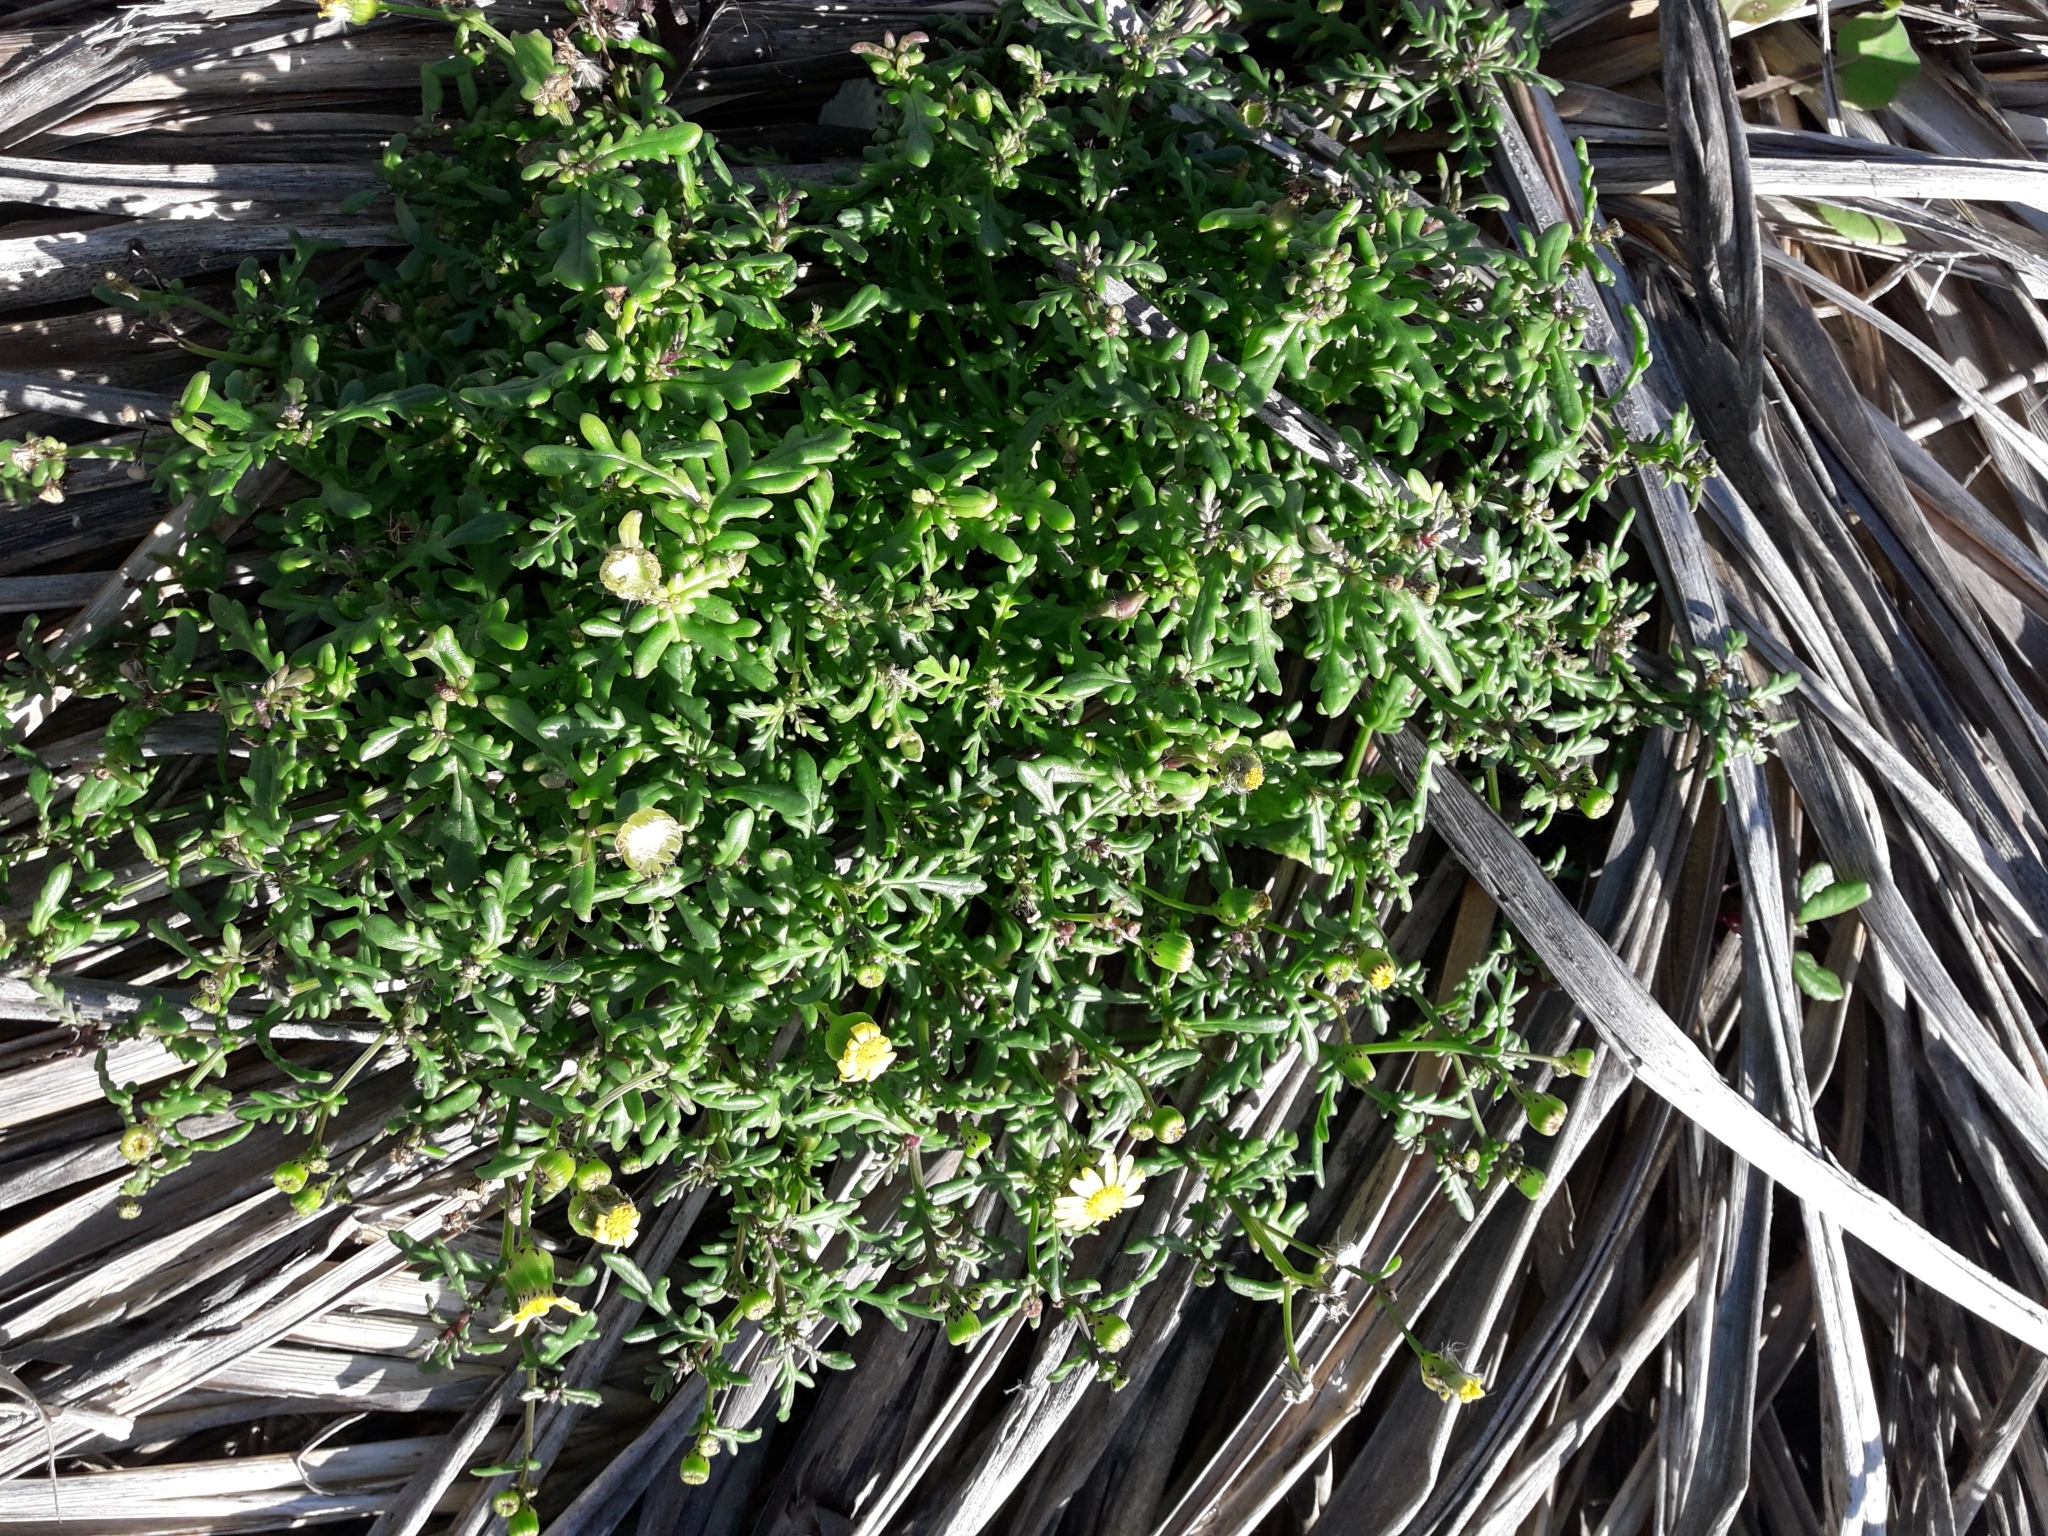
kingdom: Plantae
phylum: Tracheophyta
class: Magnoliopsida
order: Asterales
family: Asteraceae
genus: Senecio
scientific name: Senecio lautus
